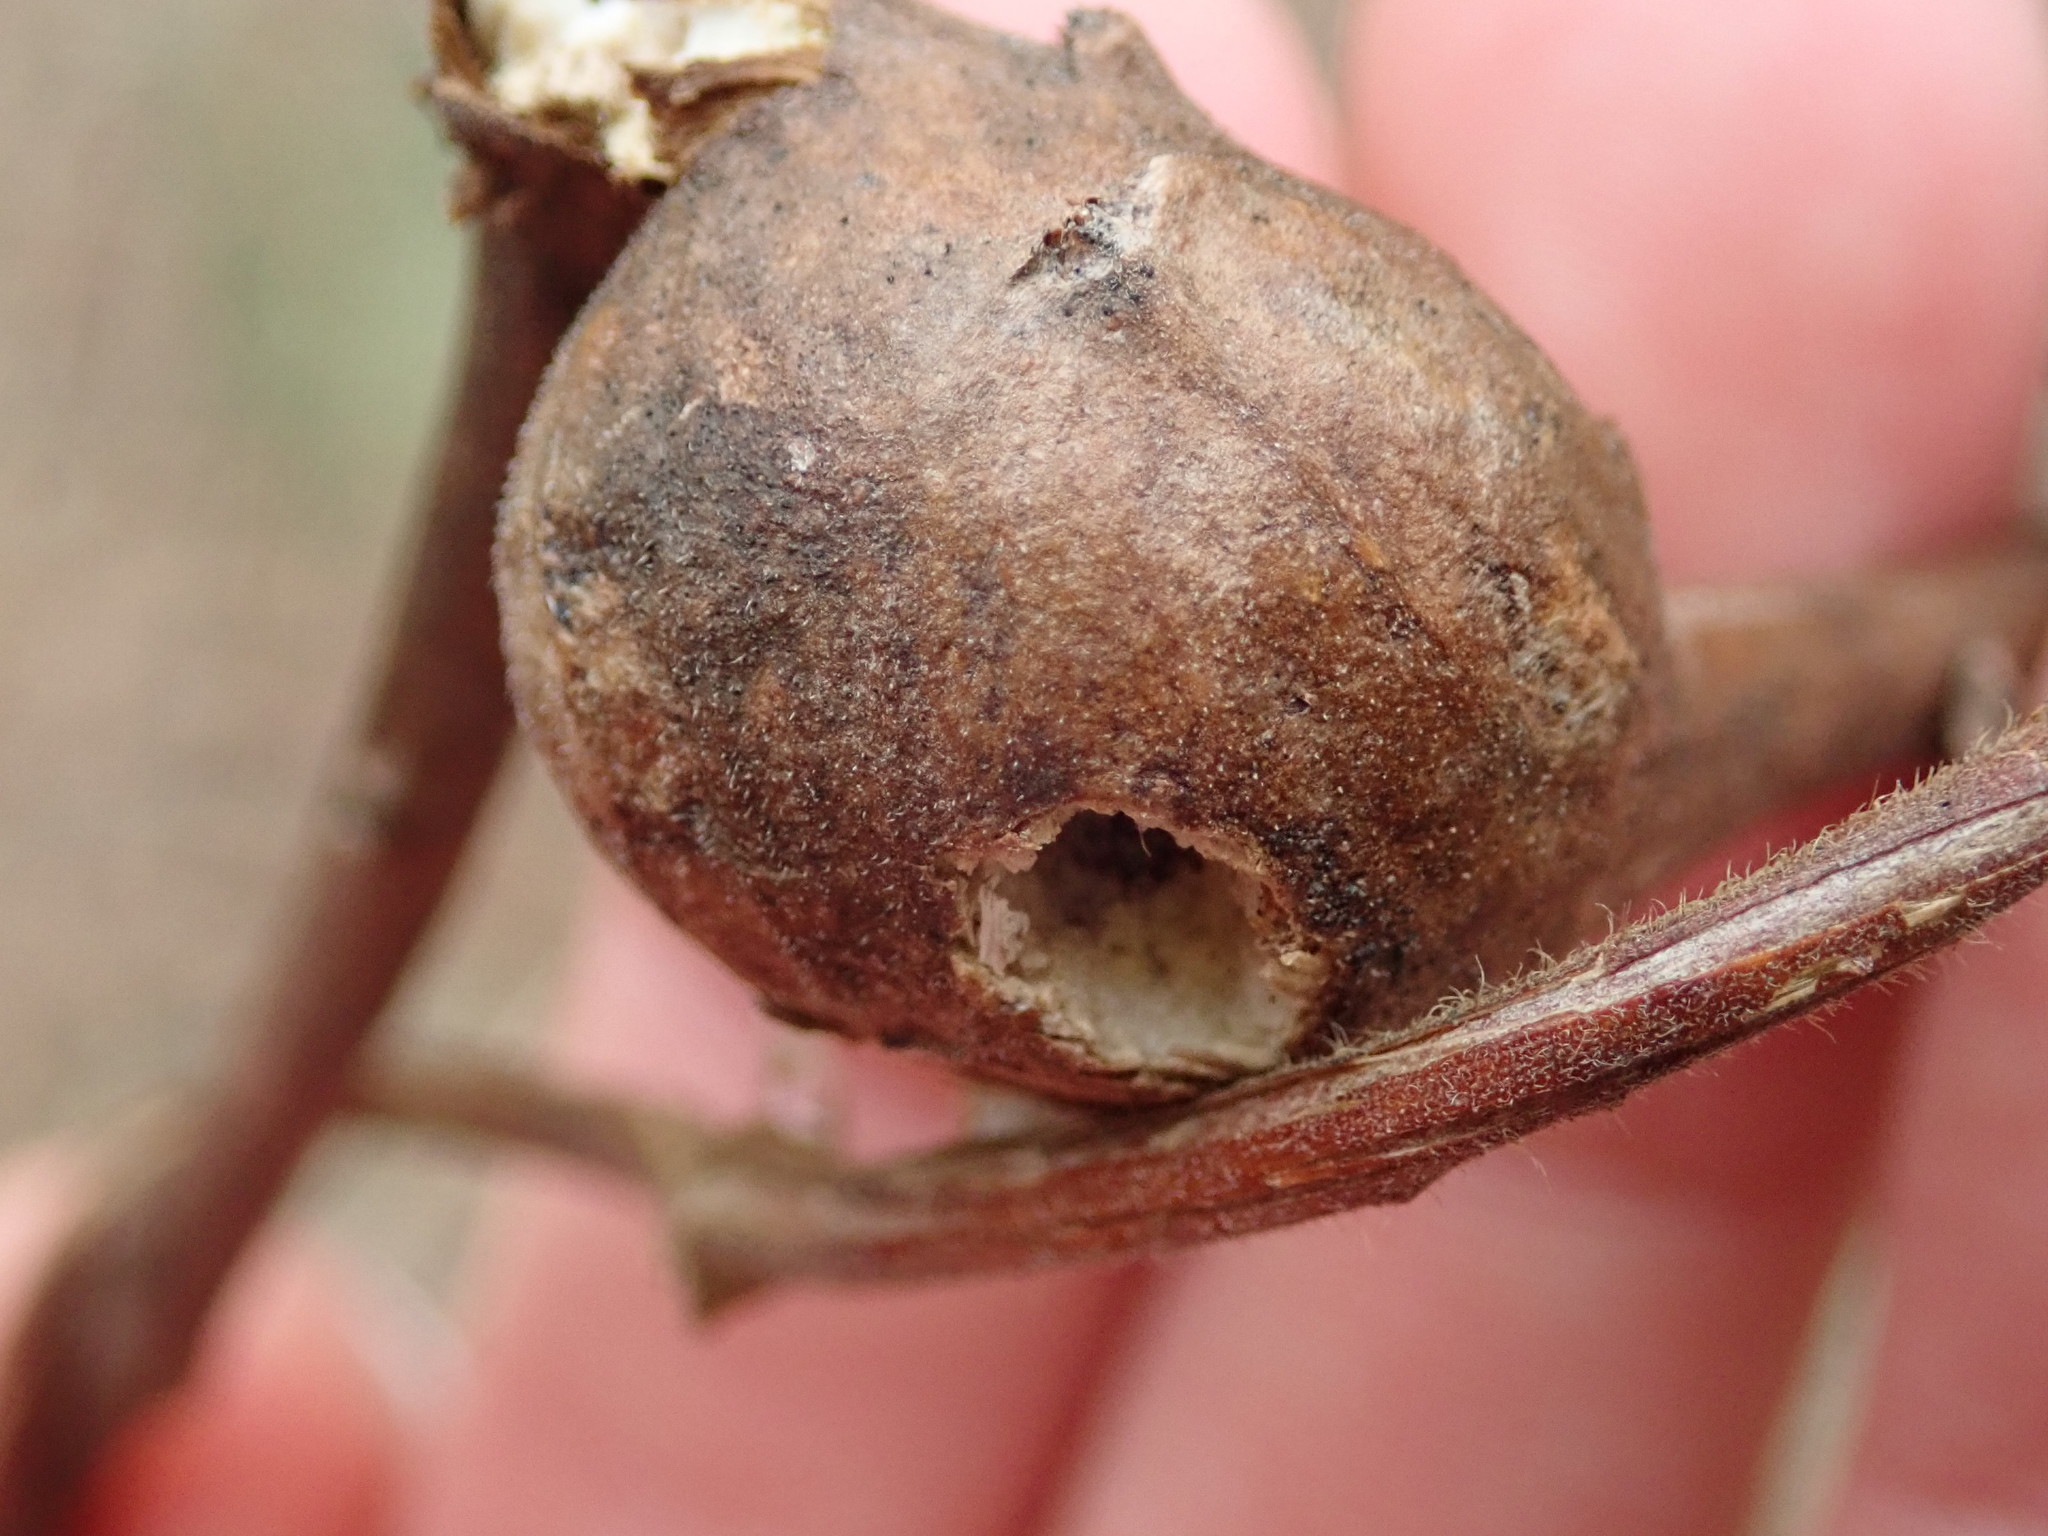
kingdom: Animalia
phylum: Arthropoda
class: Insecta
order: Diptera
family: Tephritidae
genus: Eurosta
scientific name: Eurosta solidaginis
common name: Goldenrod gall fly
